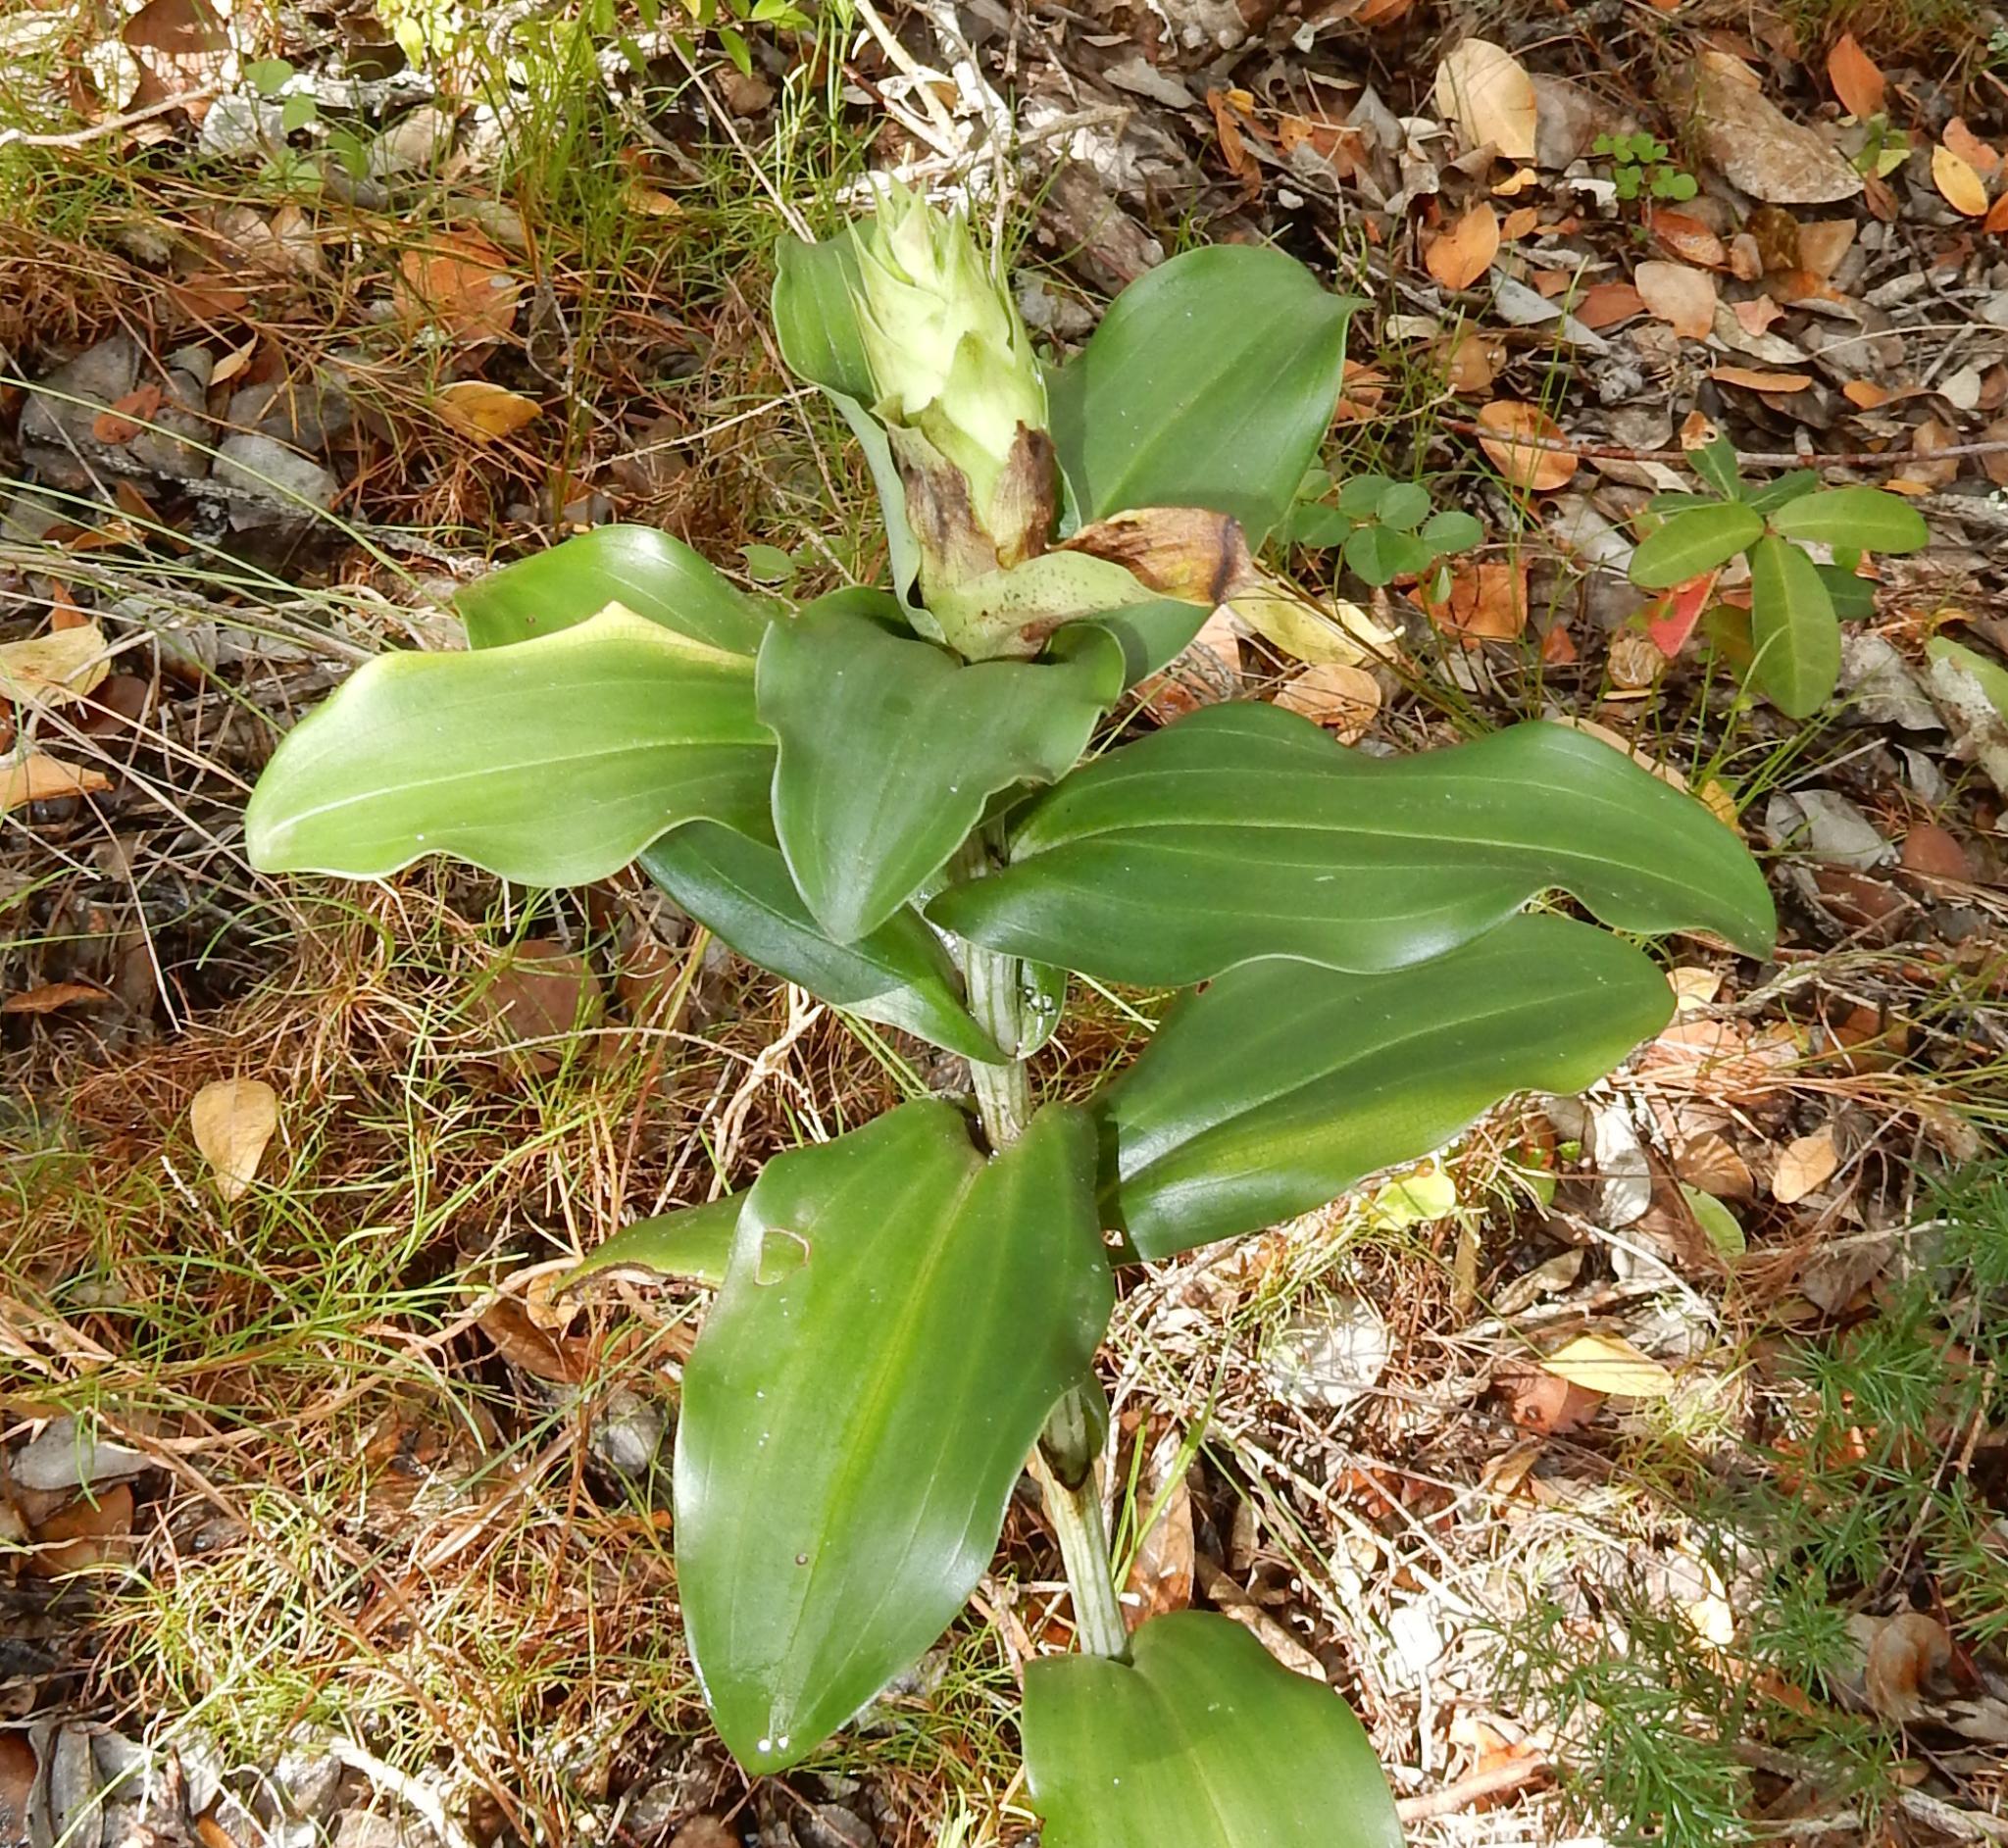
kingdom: Plantae
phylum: Tracheophyta
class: Liliopsida
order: Asparagales
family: Orchidaceae
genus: Bonatea
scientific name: Bonatea speciosa
